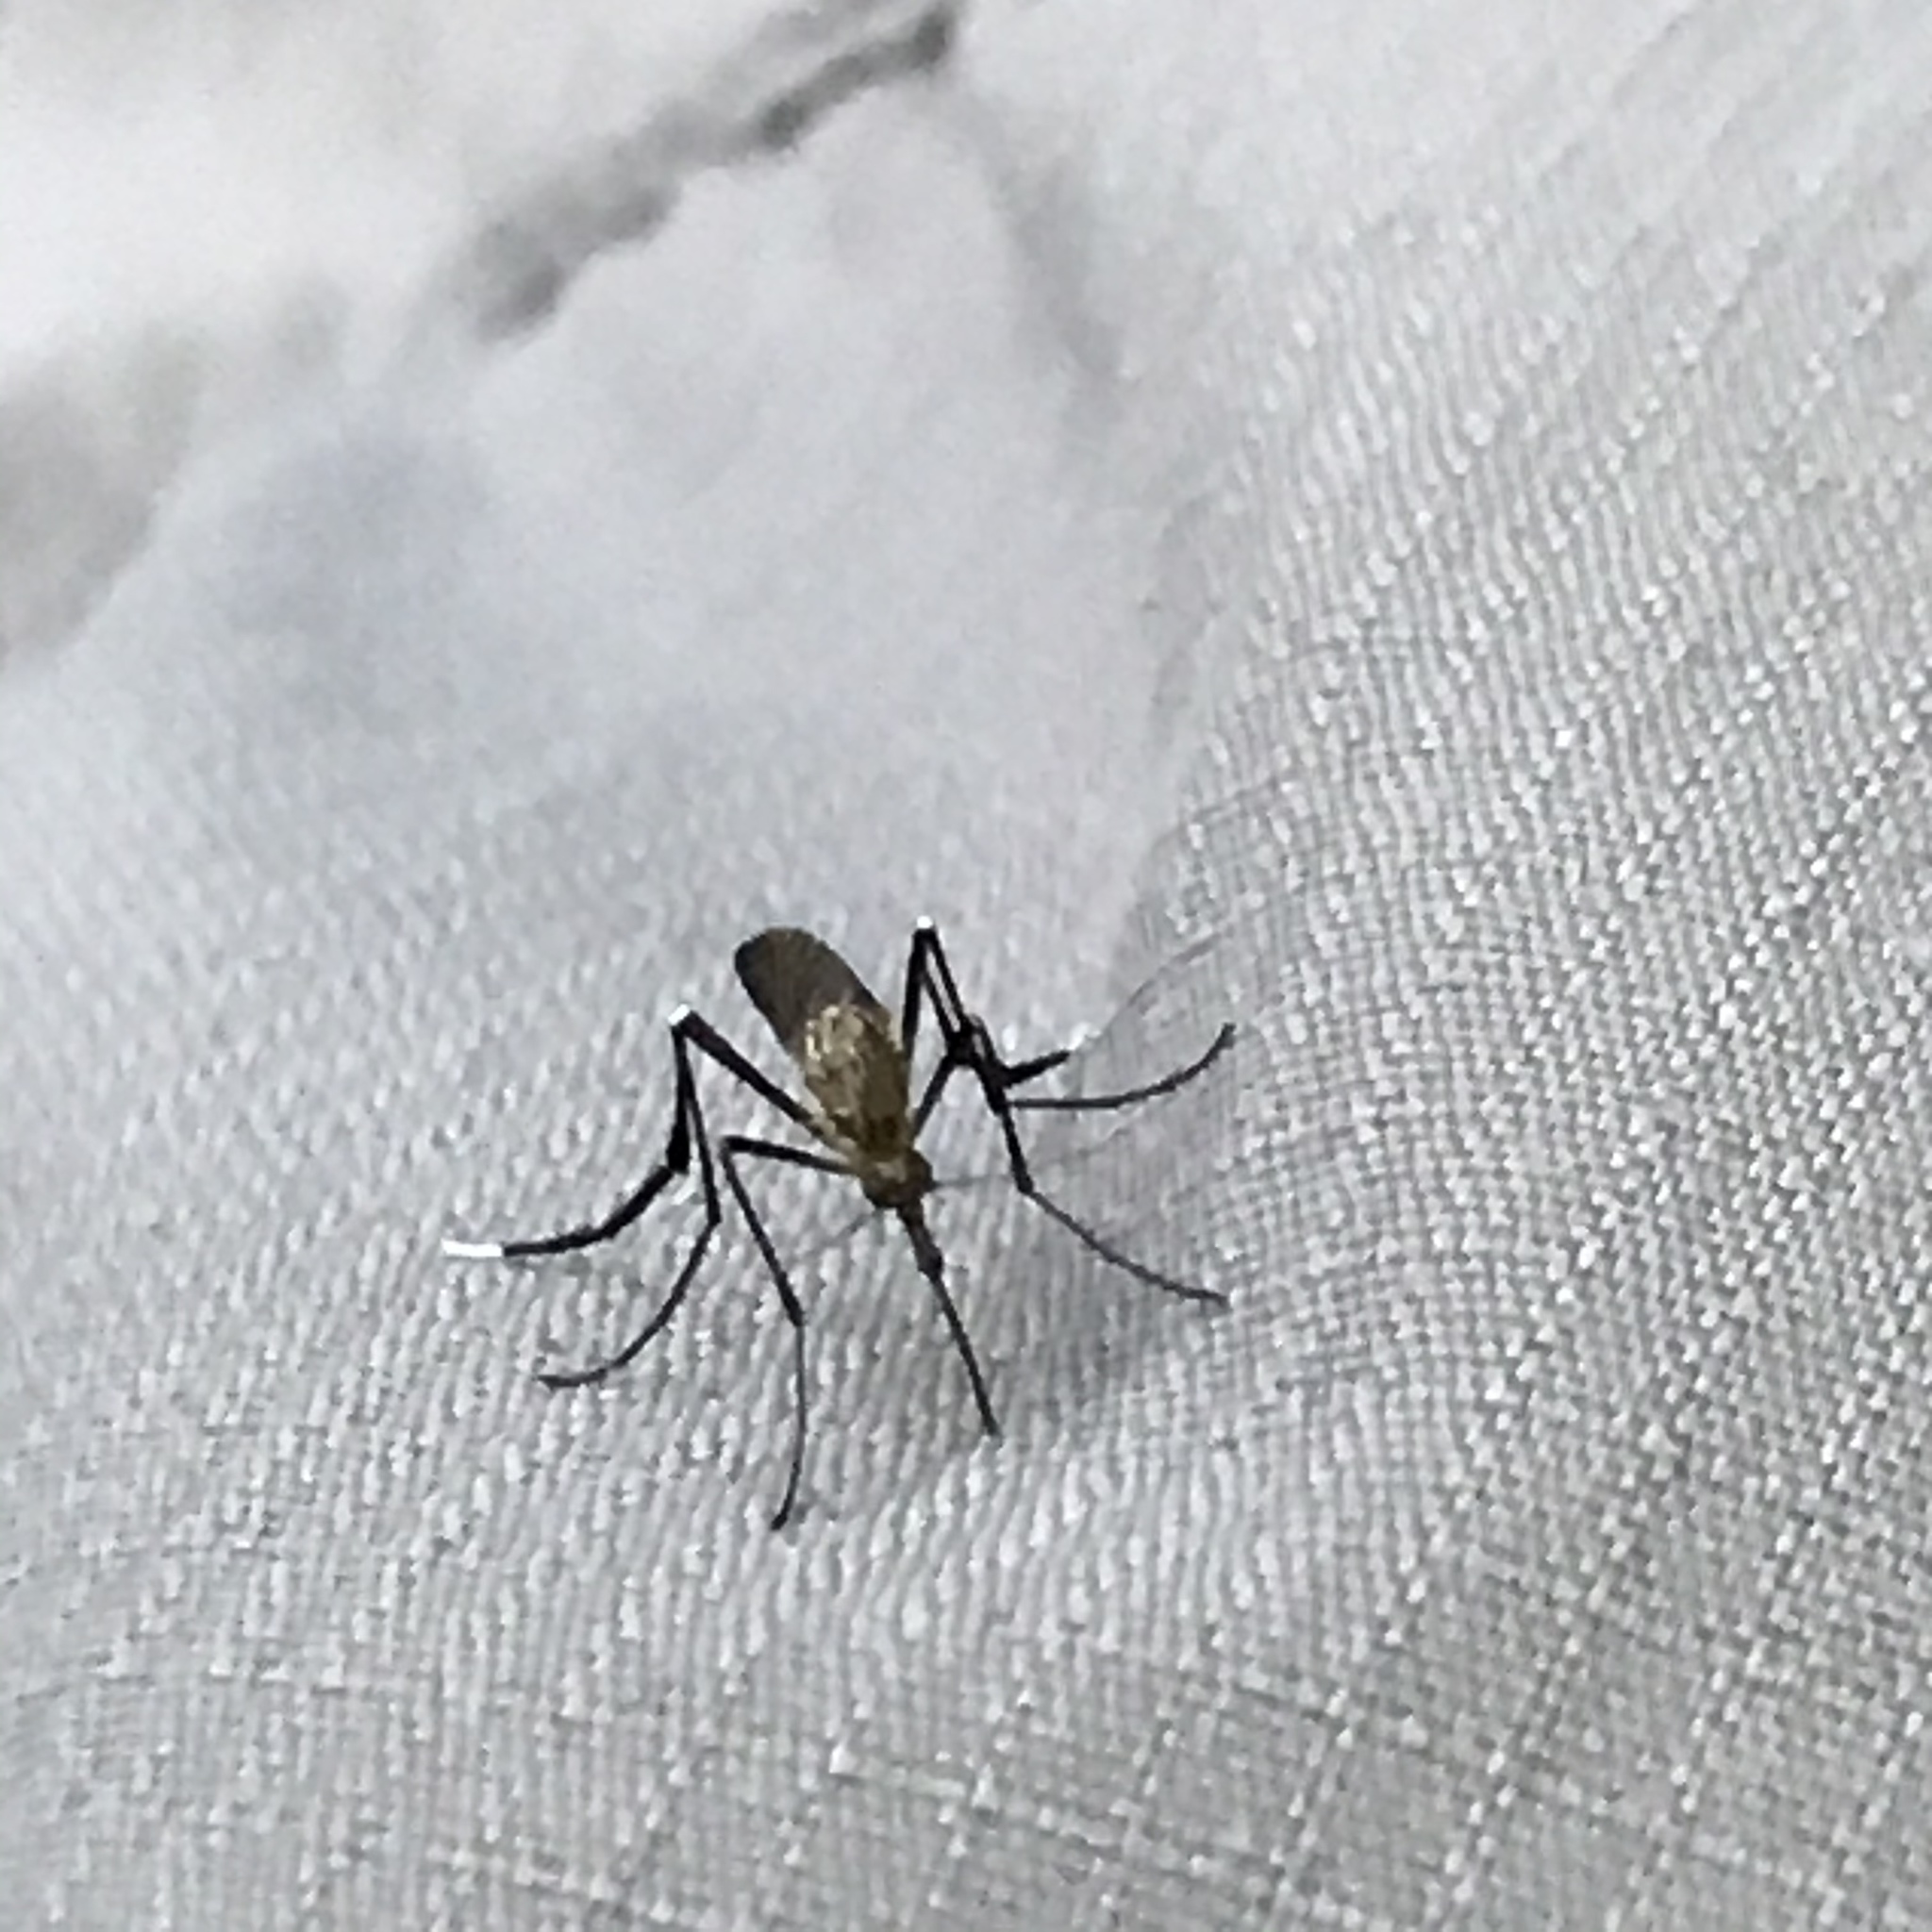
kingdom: Animalia
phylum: Arthropoda
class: Insecta
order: Diptera
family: Culicidae
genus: Psorophora
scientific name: Psorophora ferox
